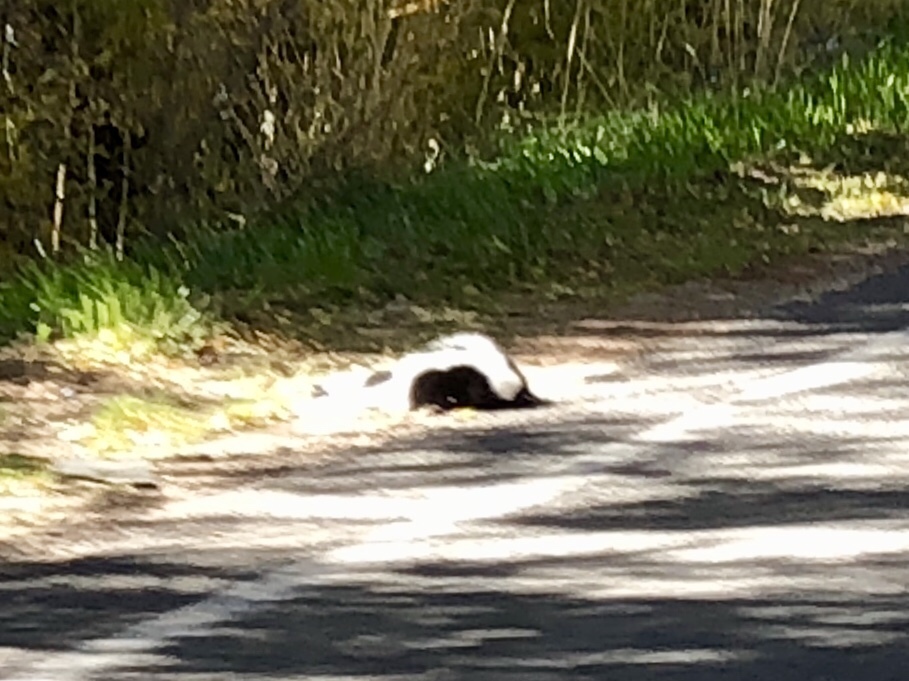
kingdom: Animalia
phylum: Chordata
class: Mammalia
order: Carnivora
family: Mephitidae
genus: Mephitis
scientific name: Mephitis mephitis
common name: Striped skunk
